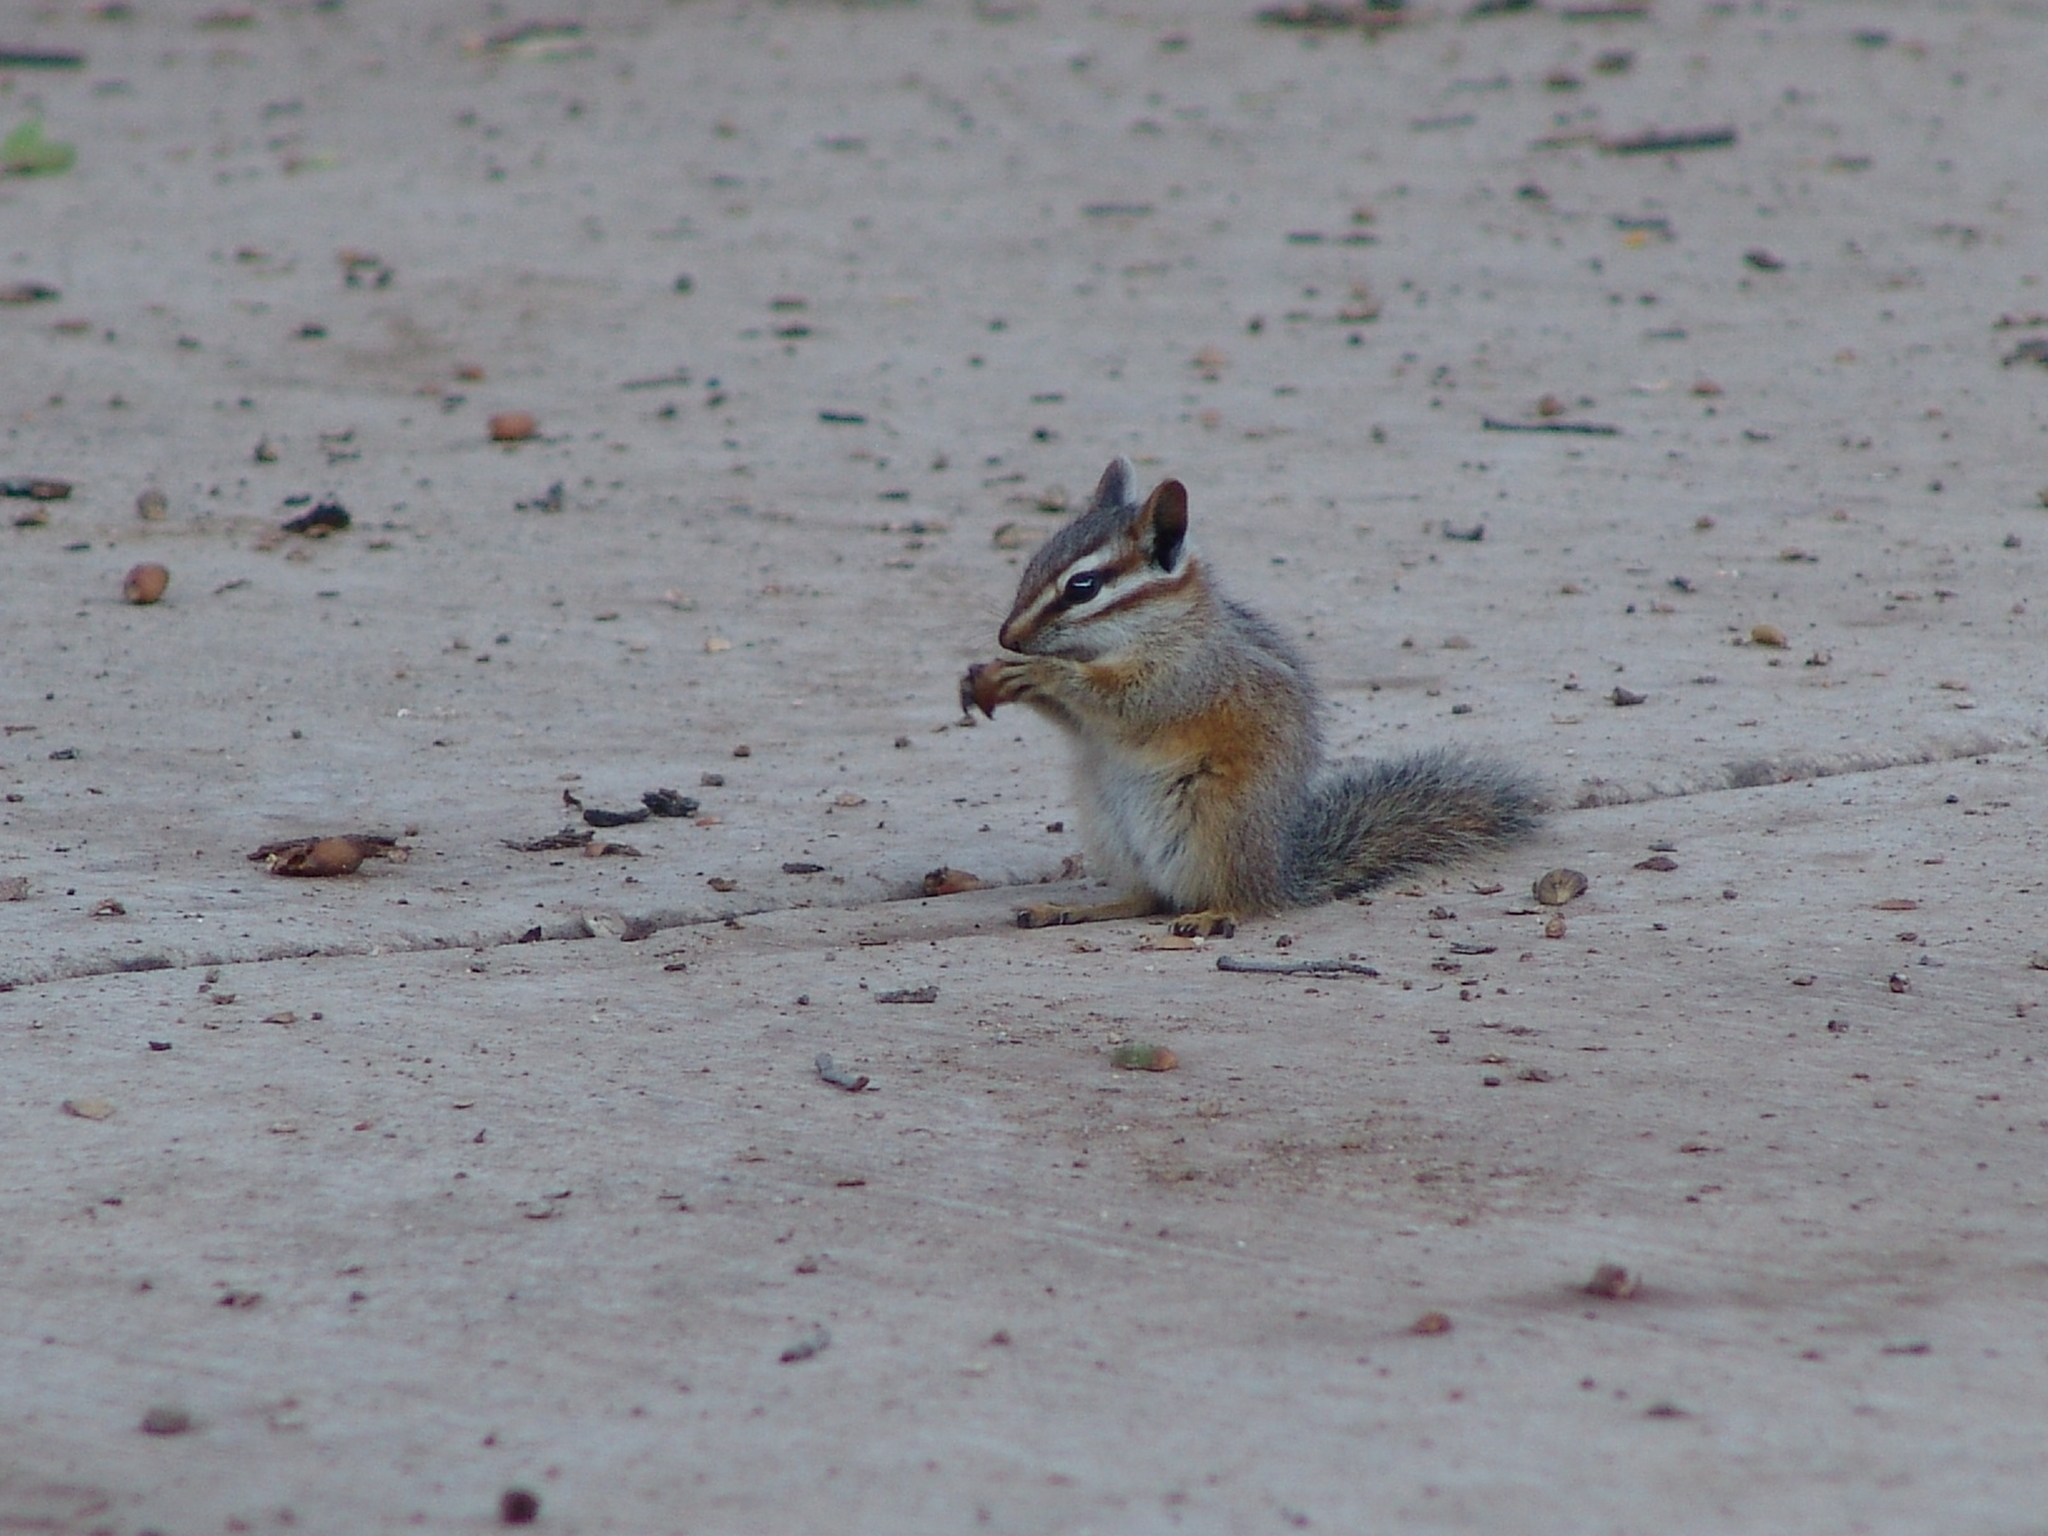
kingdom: Animalia
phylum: Chordata
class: Mammalia
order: Rodentia
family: Sciuridae
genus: Tamias
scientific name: Tamias dorsalis
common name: Cliff chipmunk
